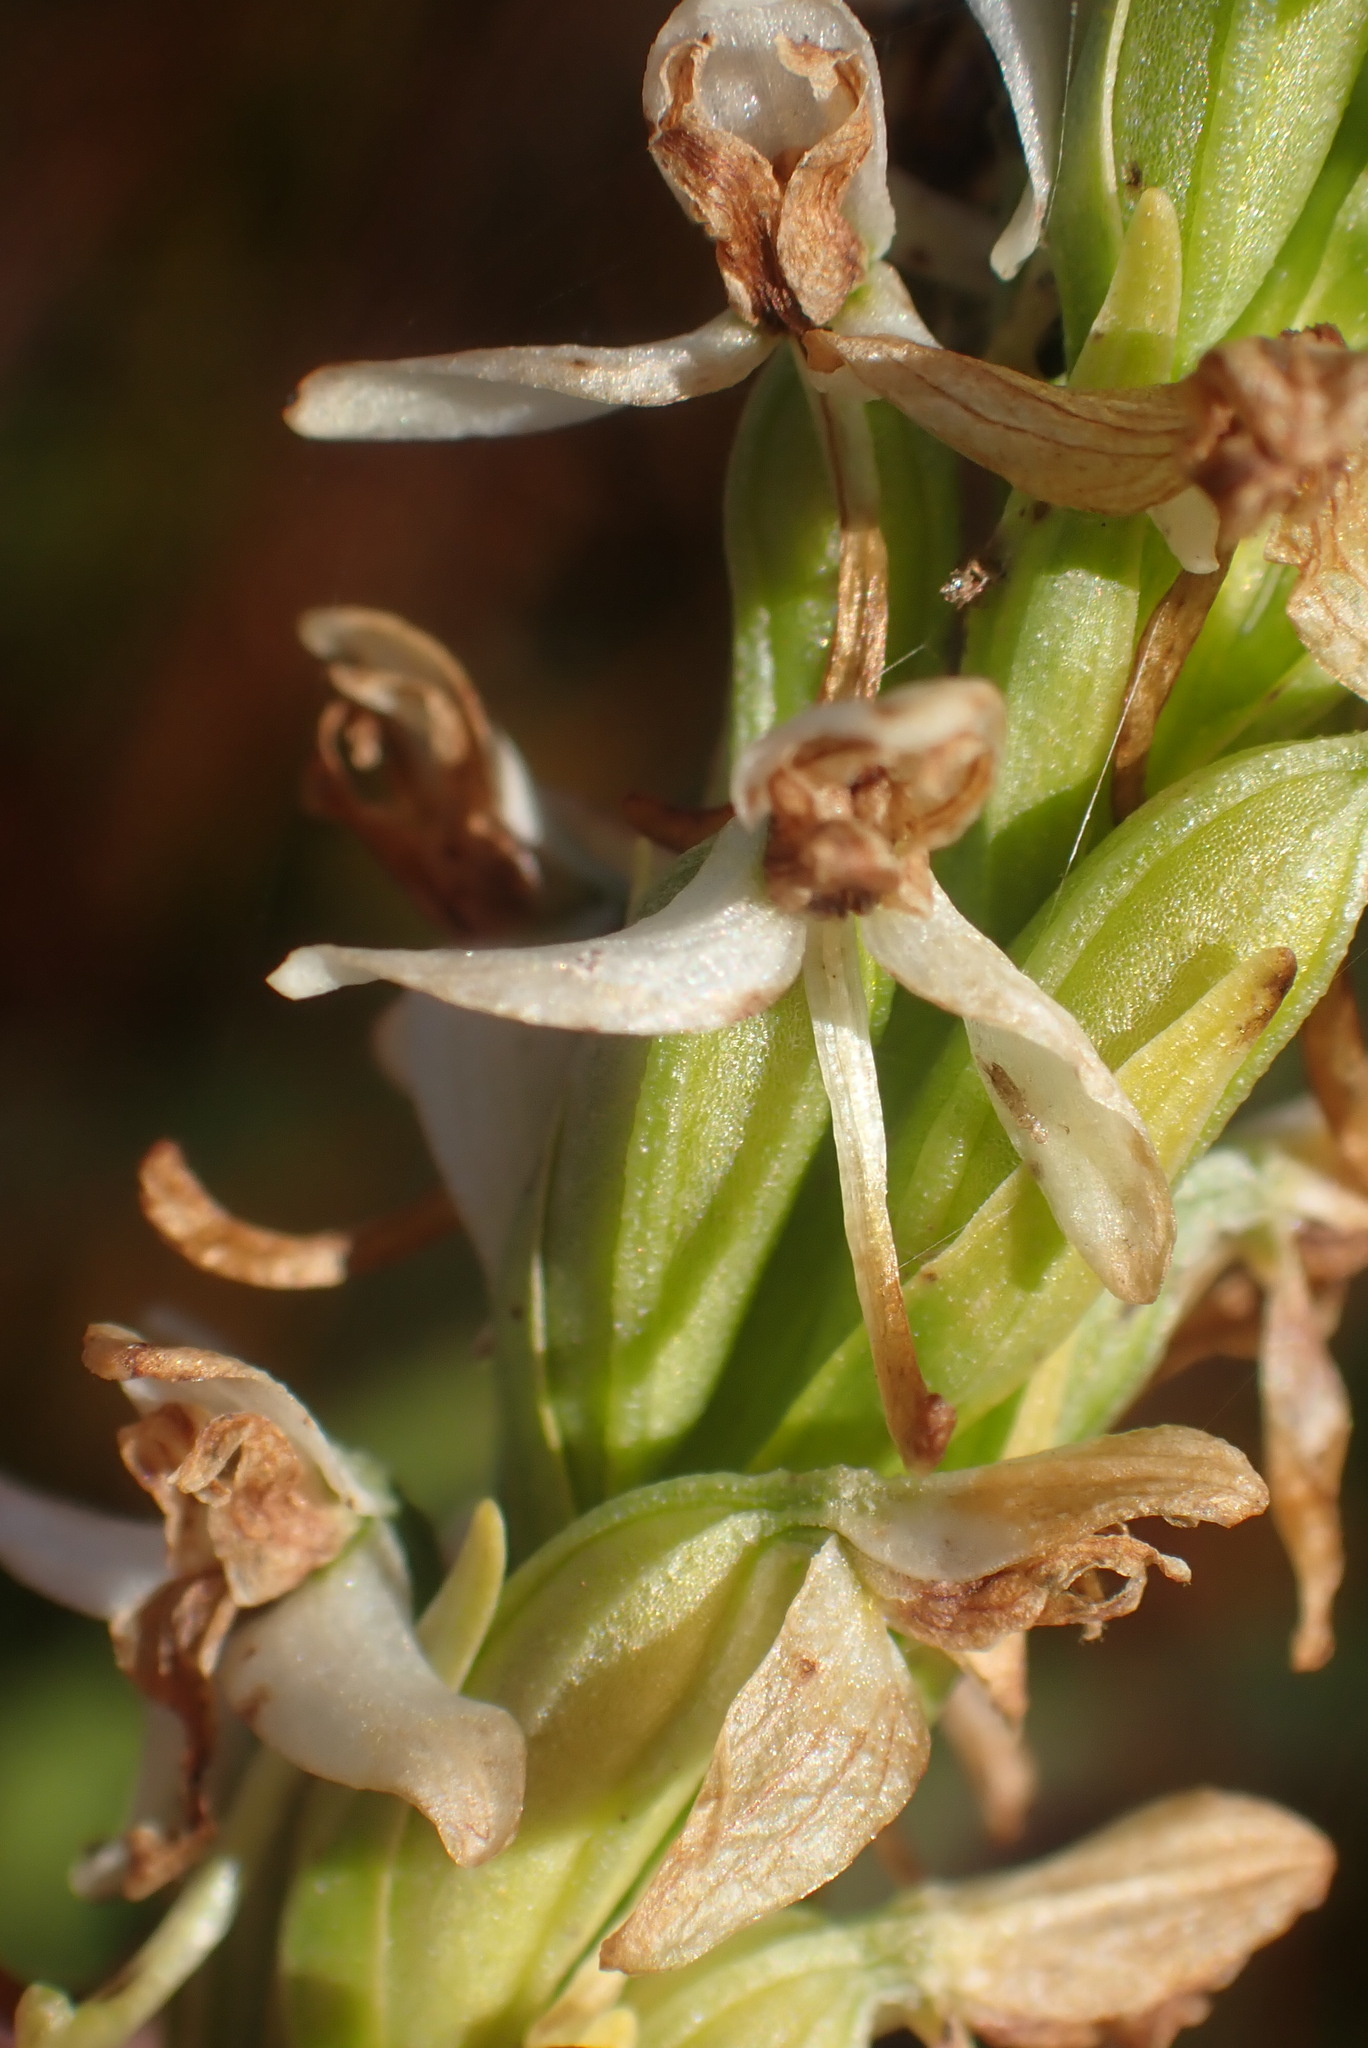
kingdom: Plantae
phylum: Tracheophyta
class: Liliopsida
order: Asparagales
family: Orchidaceae
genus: Platanthera
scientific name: Platanthera dilatata
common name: Bog candles
